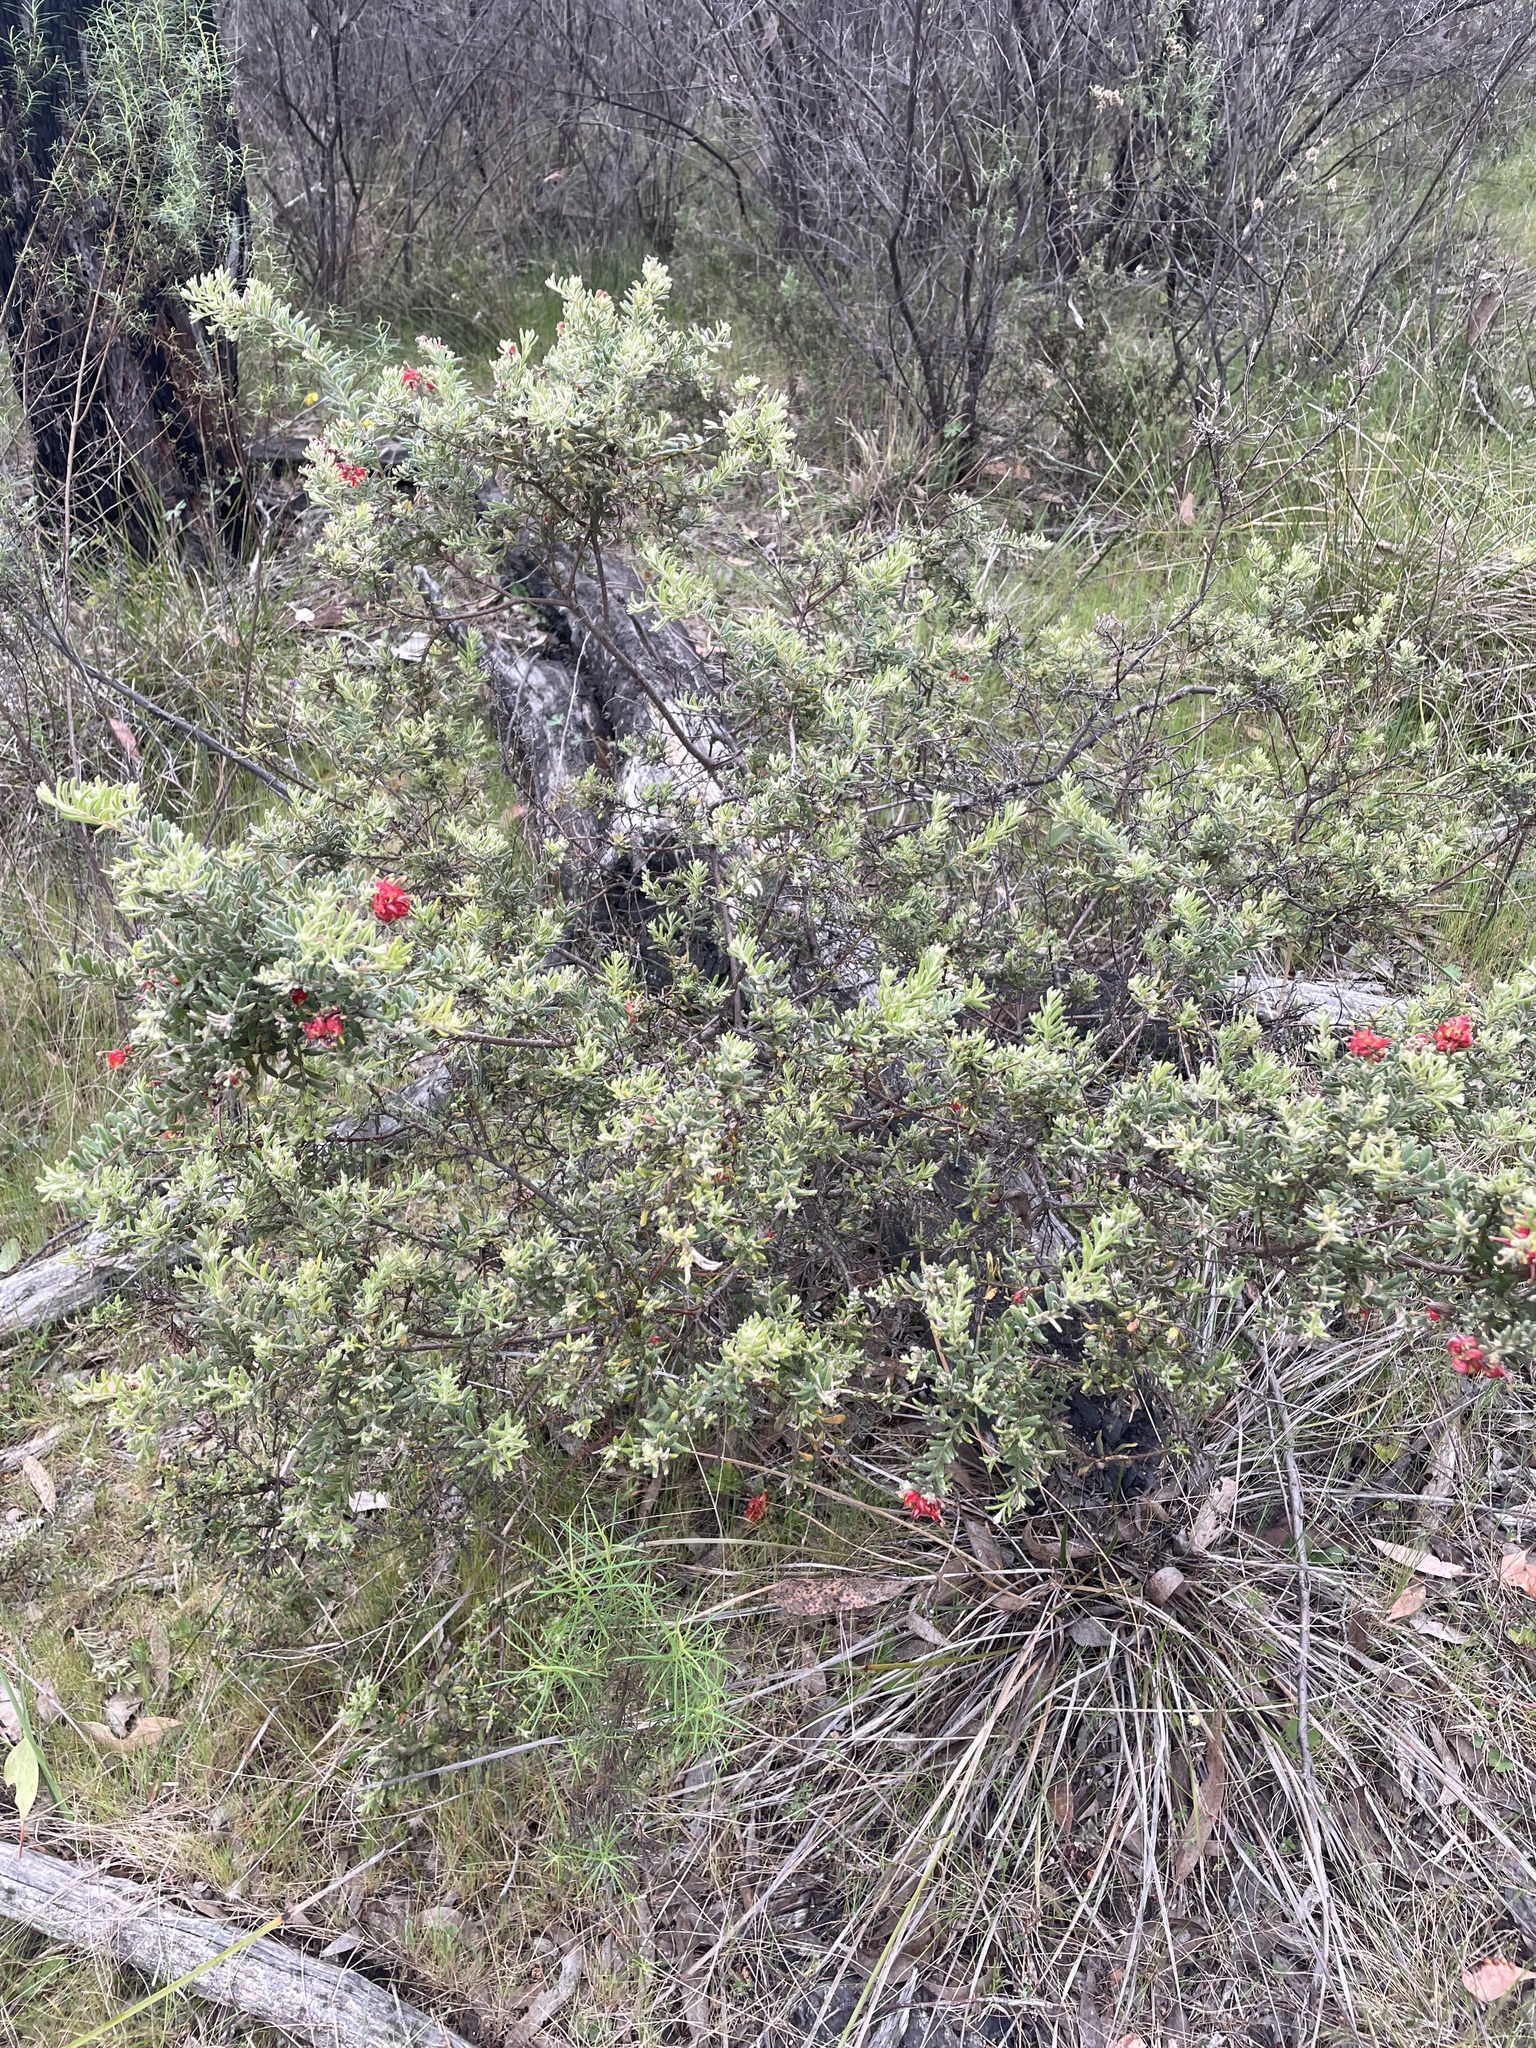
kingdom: Plantae
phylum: Tracheophyta
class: Magnoliopsida
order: Proteales
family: Proteaceae
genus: Grevillea
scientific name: Grevillea lanigera
